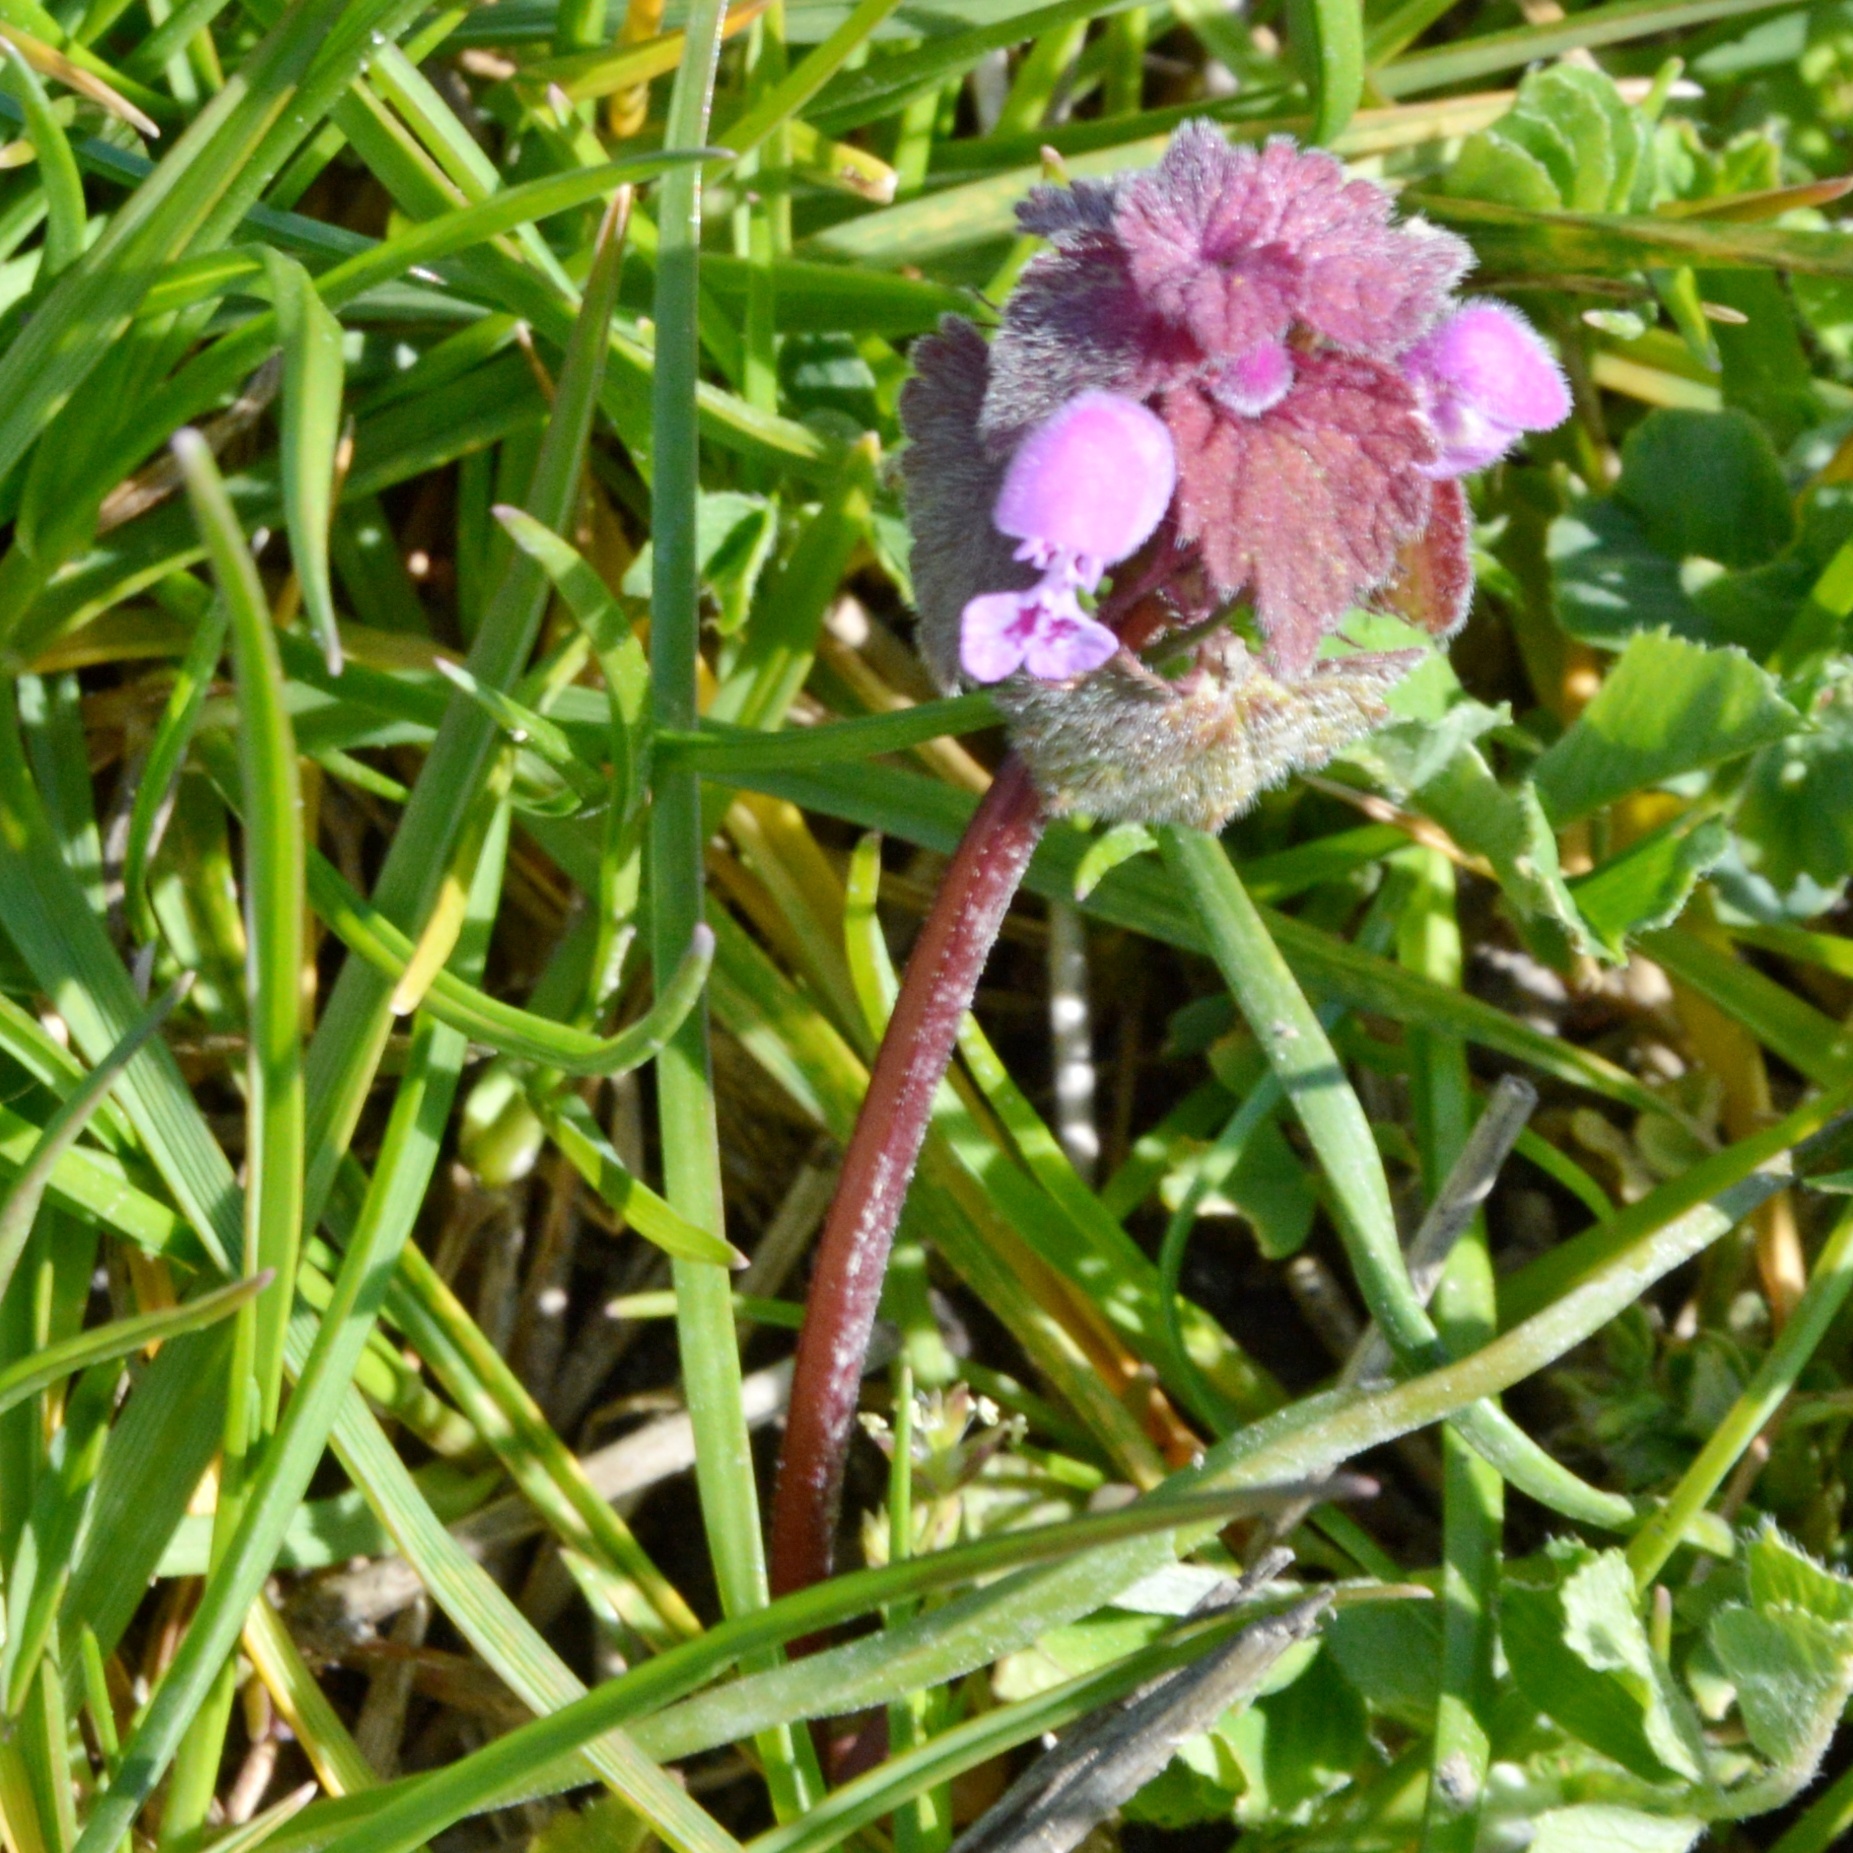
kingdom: Plantae
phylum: Tracheophyta
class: Magnoliopsida
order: Lamiales
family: Lamiaceae
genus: Lamium
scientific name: Lamium purpureum
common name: Red dead-nettle
